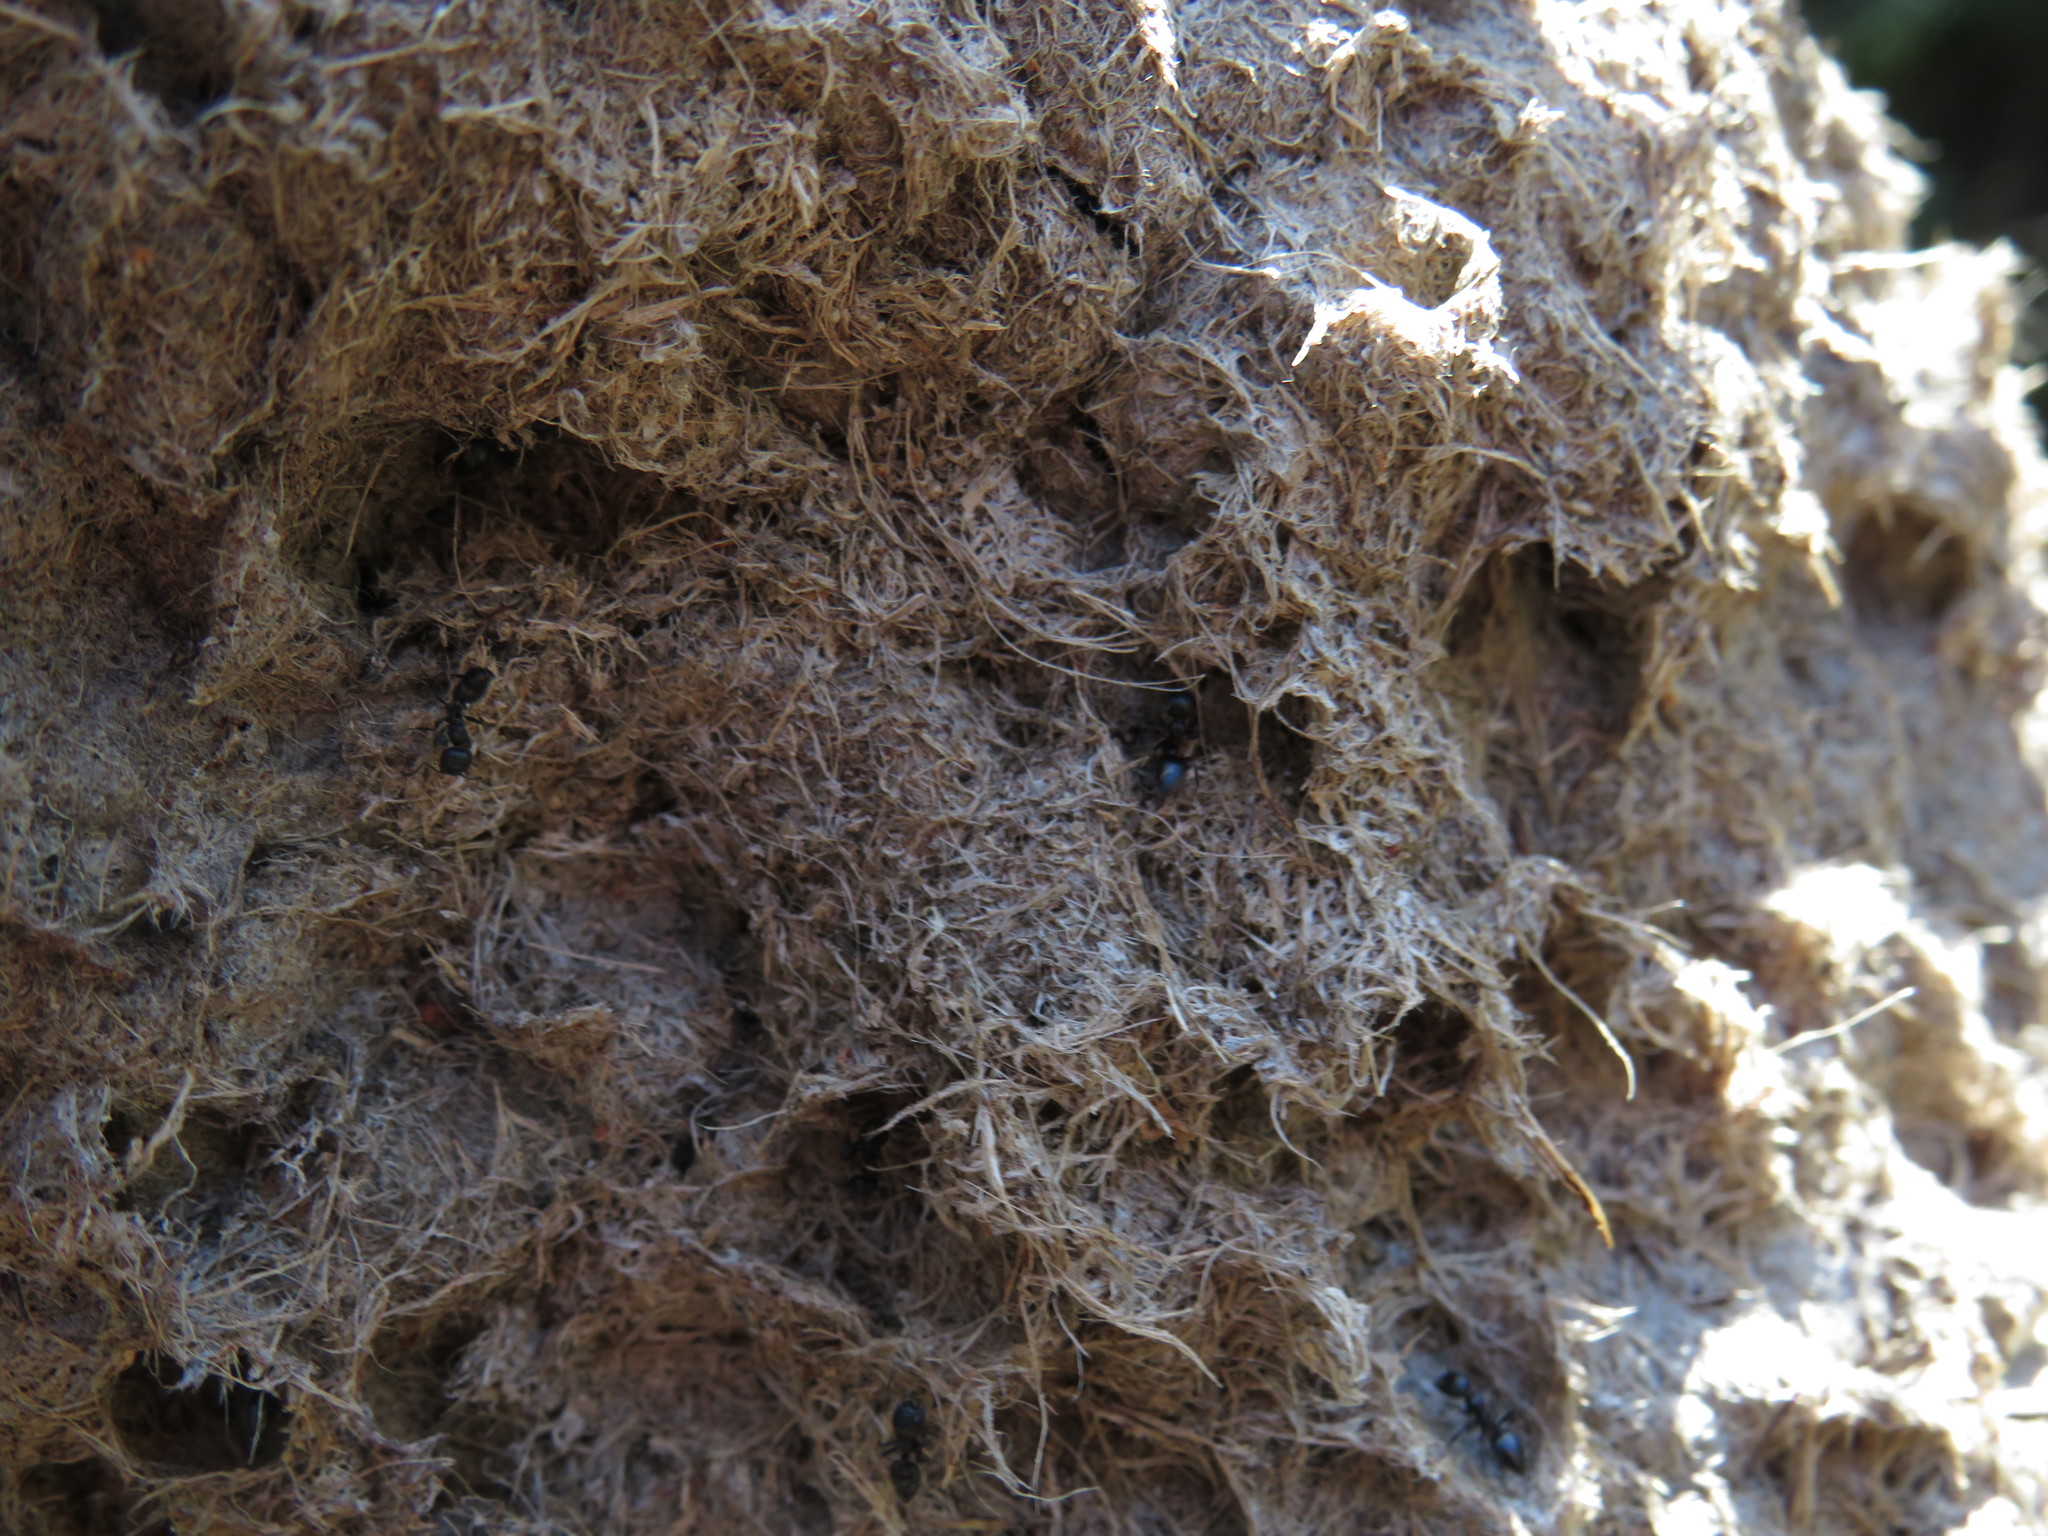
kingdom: Animalia
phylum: Arthropoda
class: Insecta
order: Hymenoptera
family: Formicidae
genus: Crematogaster
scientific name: Crematogaster peringueyi
